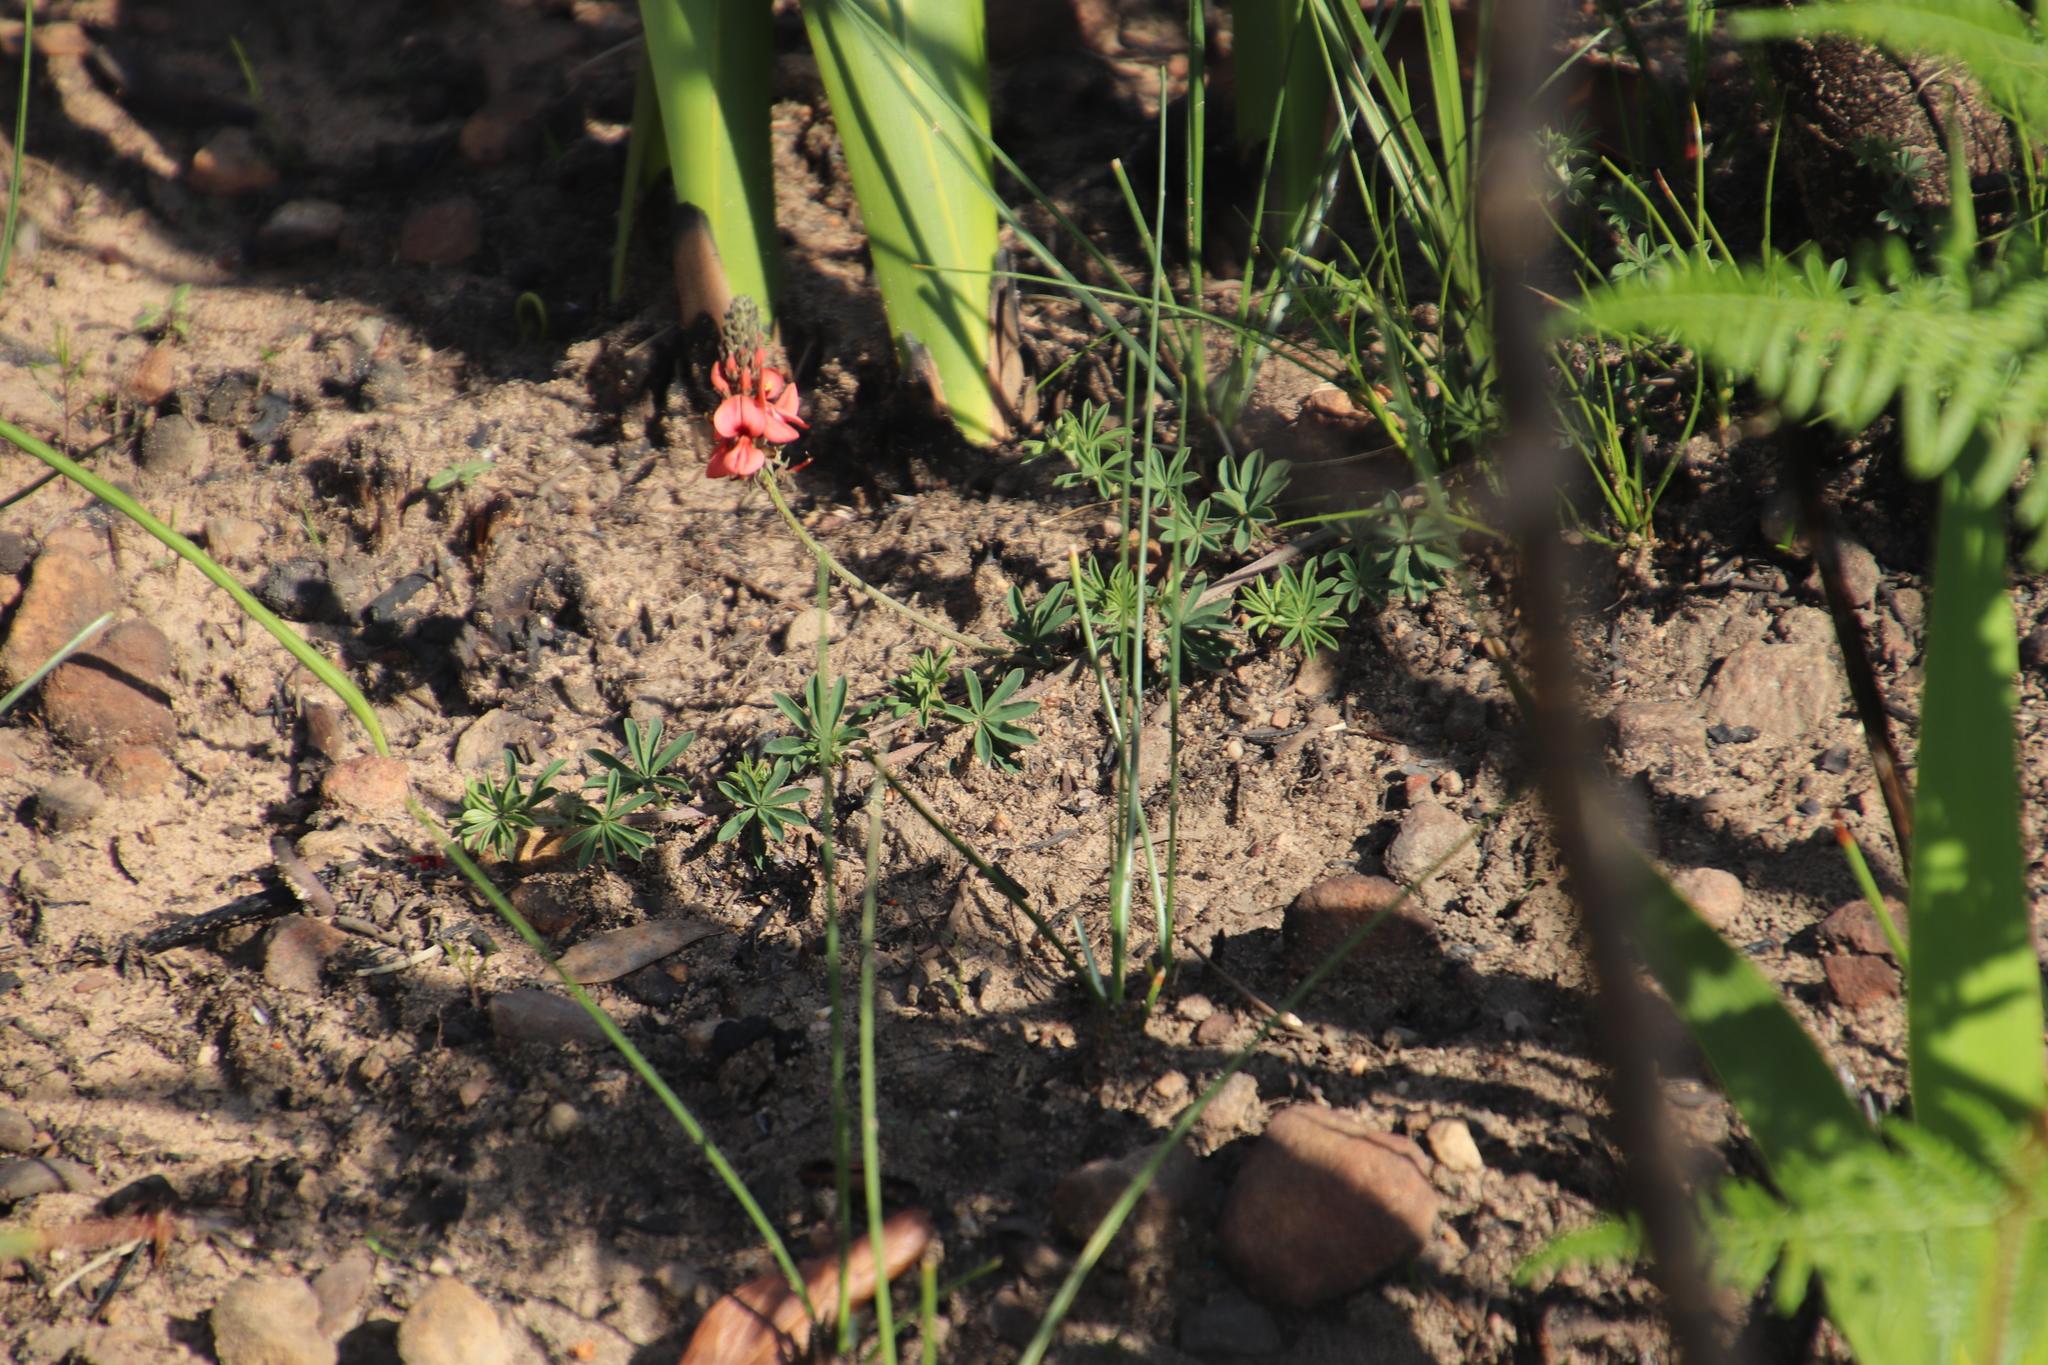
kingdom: Plantae
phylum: Tracheophyta
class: Magnoliopsida
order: Fabales
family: Fabaceae
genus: Indigofera
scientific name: Indigofera digitata
